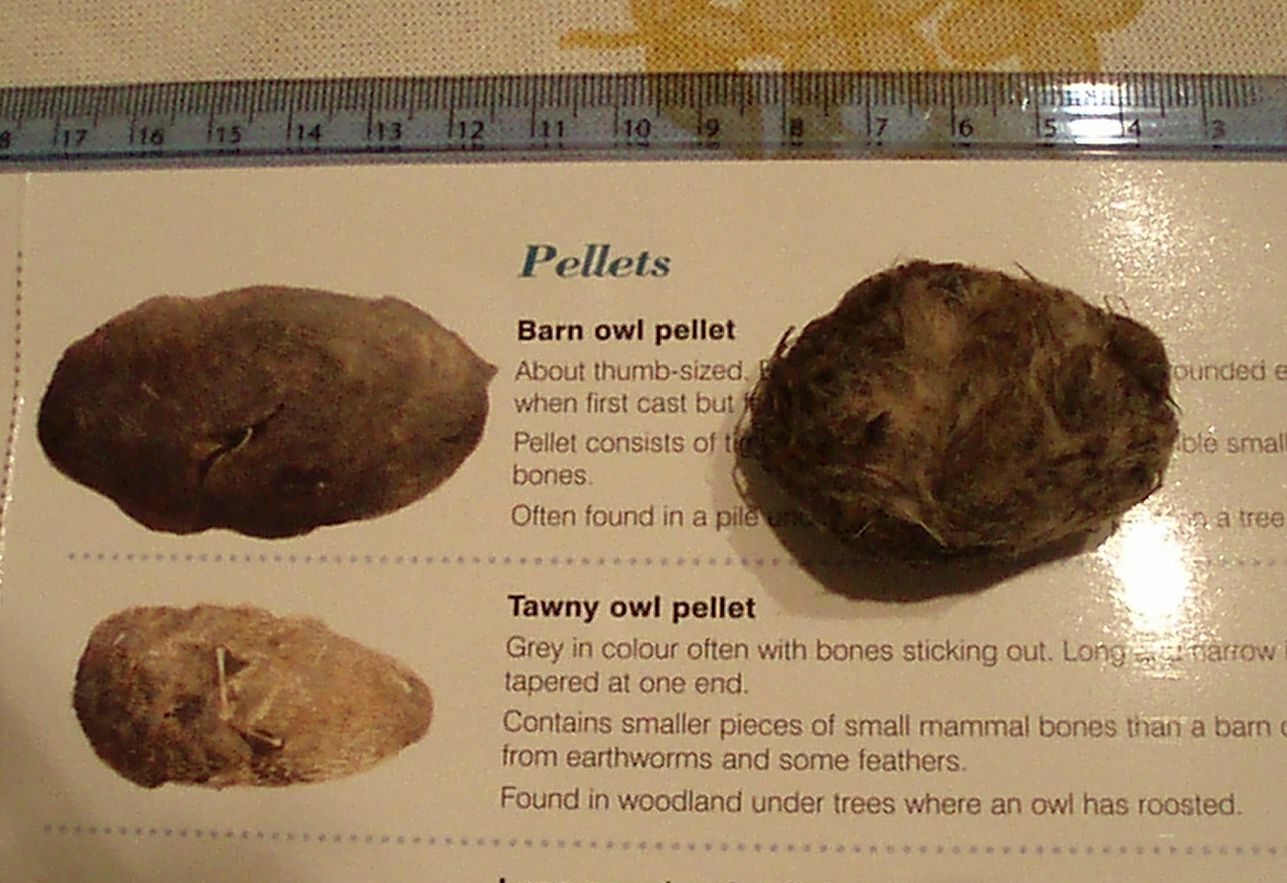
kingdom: Animalia
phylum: Chordata
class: Aves
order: Strigiformes
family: Tytonidae
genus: Tyto
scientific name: Tyto alba
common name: Barn owl
